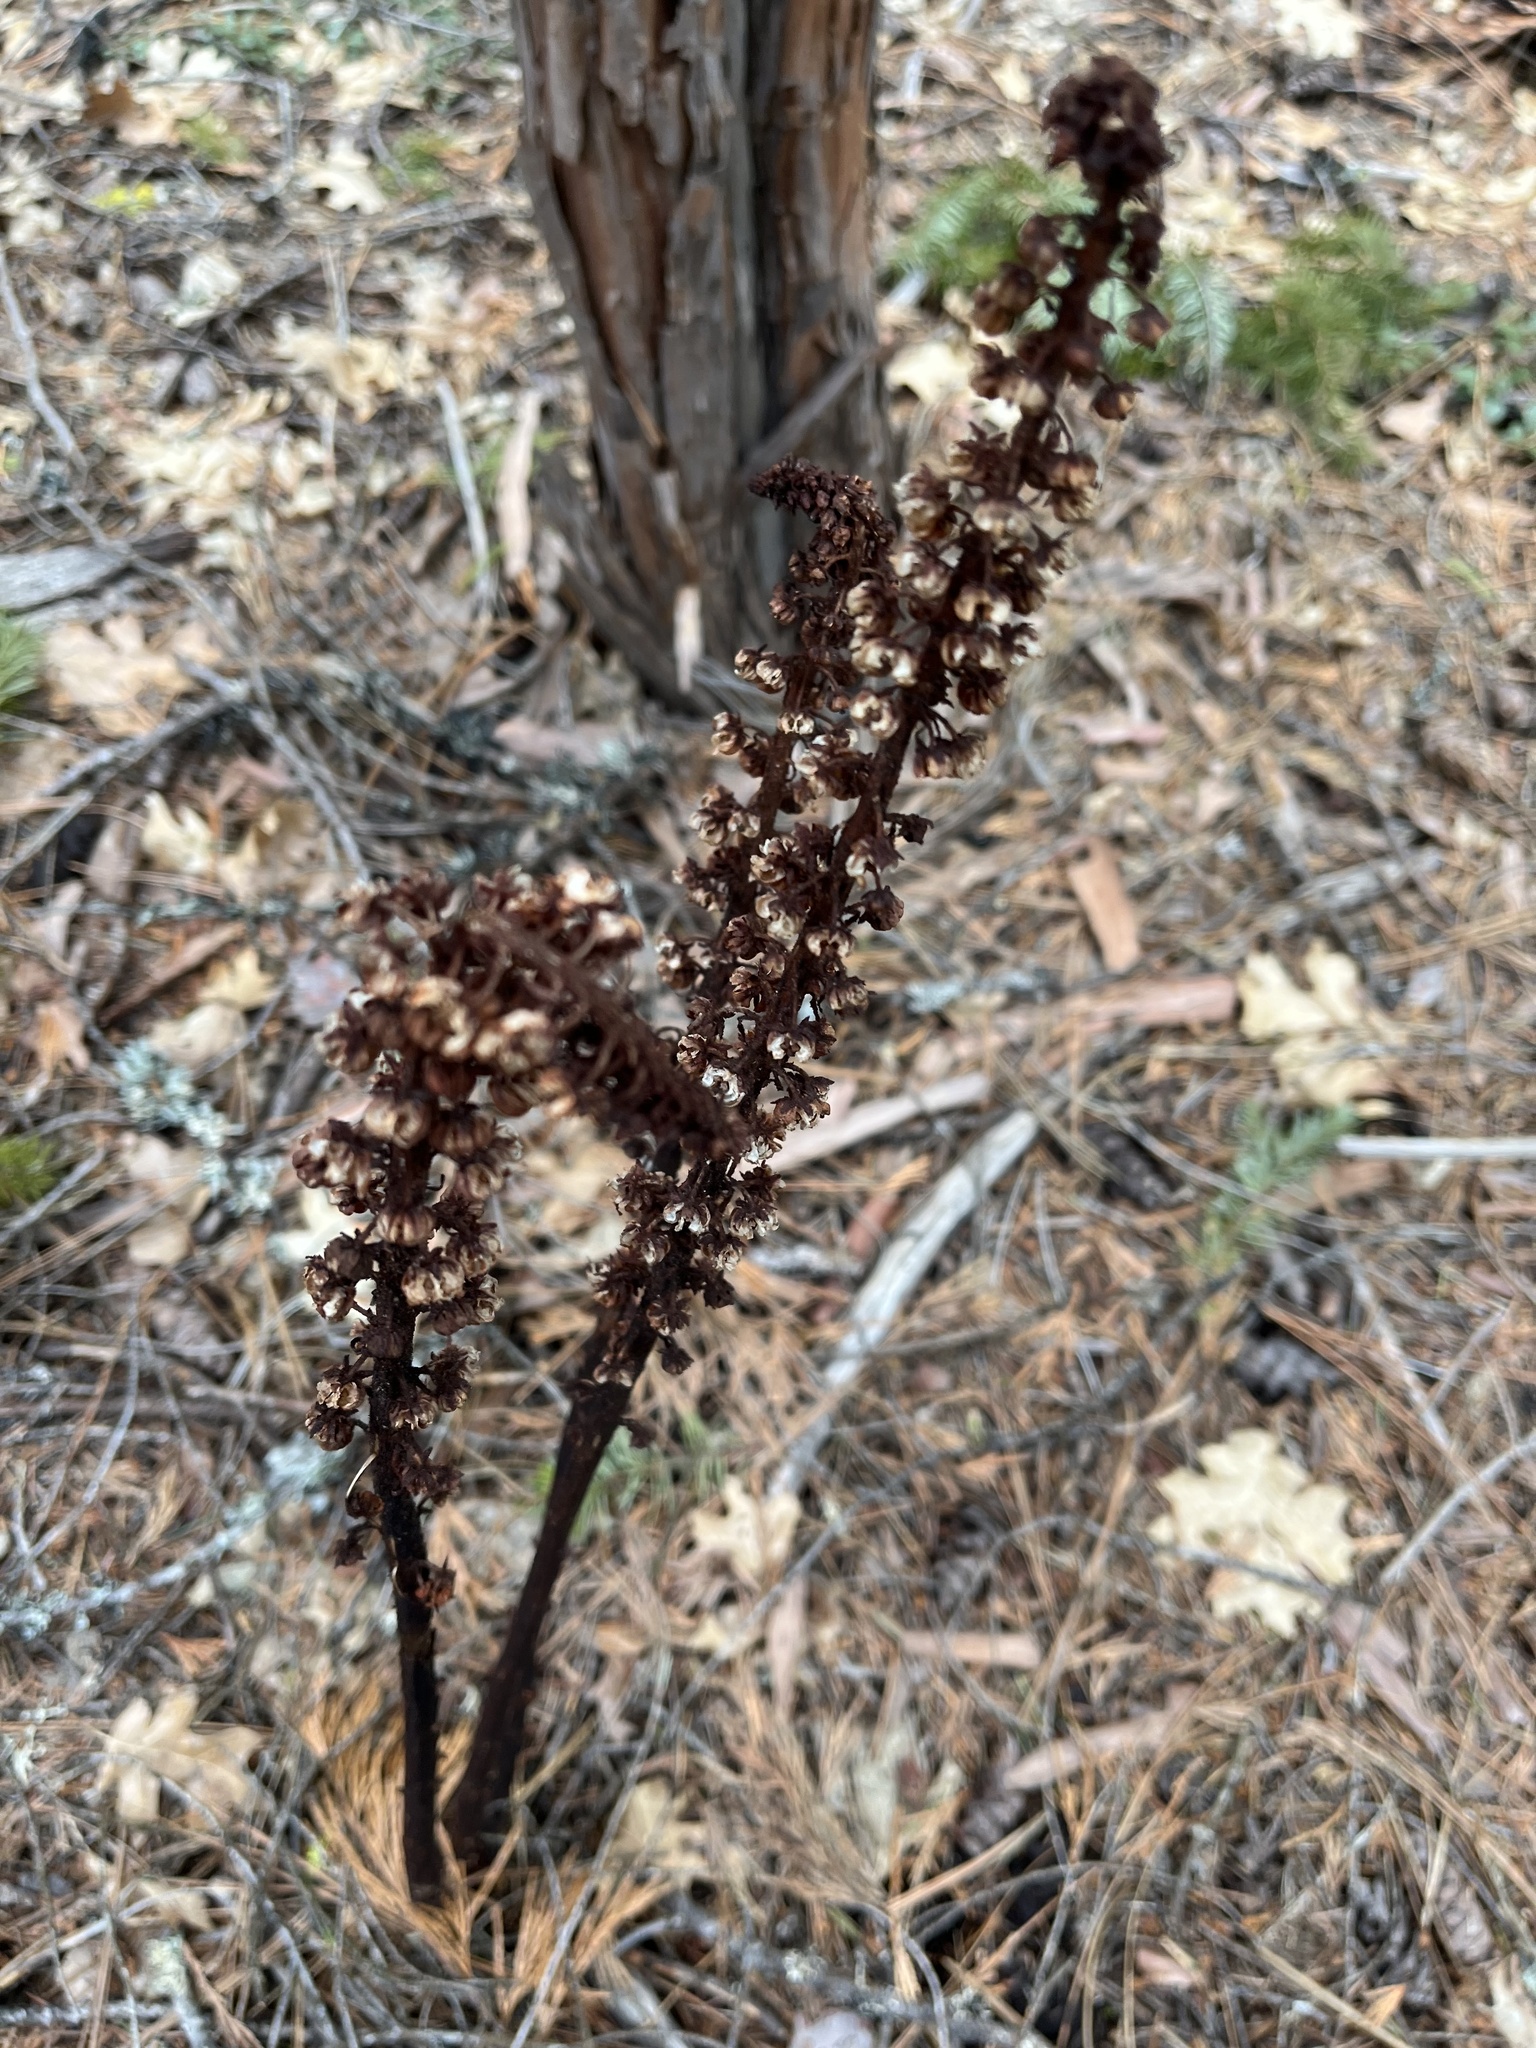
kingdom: Plantae
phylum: Tracheophyta
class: Magnoliopsida
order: Ericales
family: Ericaceae
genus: Pterospora
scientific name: Pterospora andromedea
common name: Giant bird's-nest
